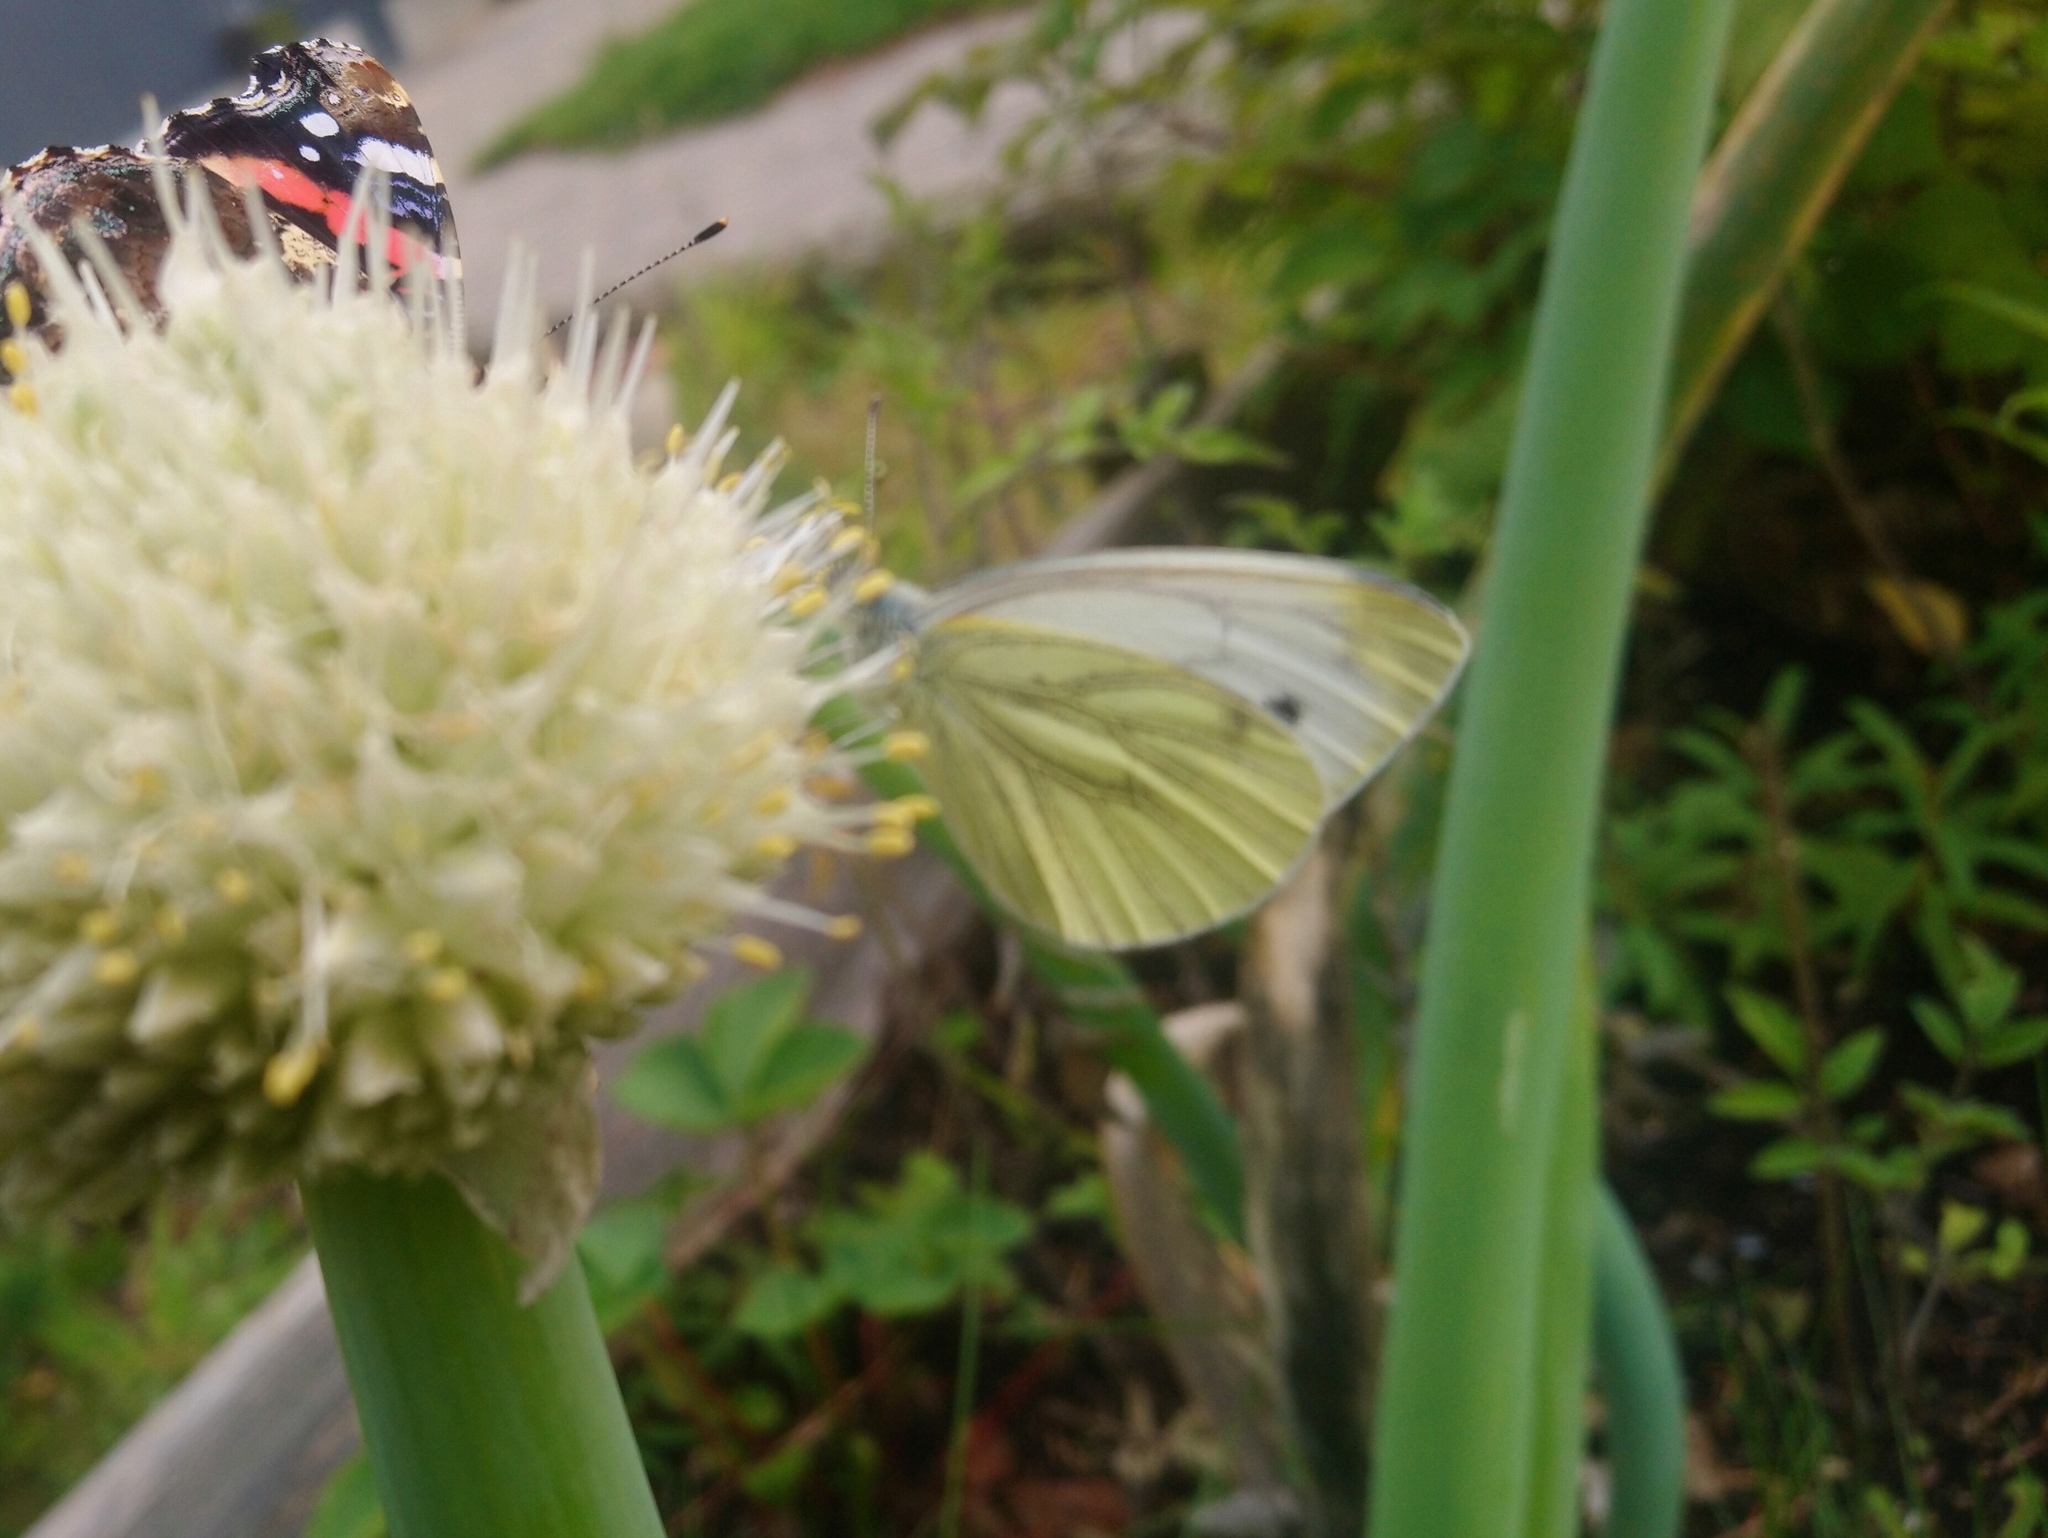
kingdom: Animalia
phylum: Arthropoda
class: Insecta
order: Lepidoptera
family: Pieridae
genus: Pieris
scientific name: Pieris napi
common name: Green-veined white
